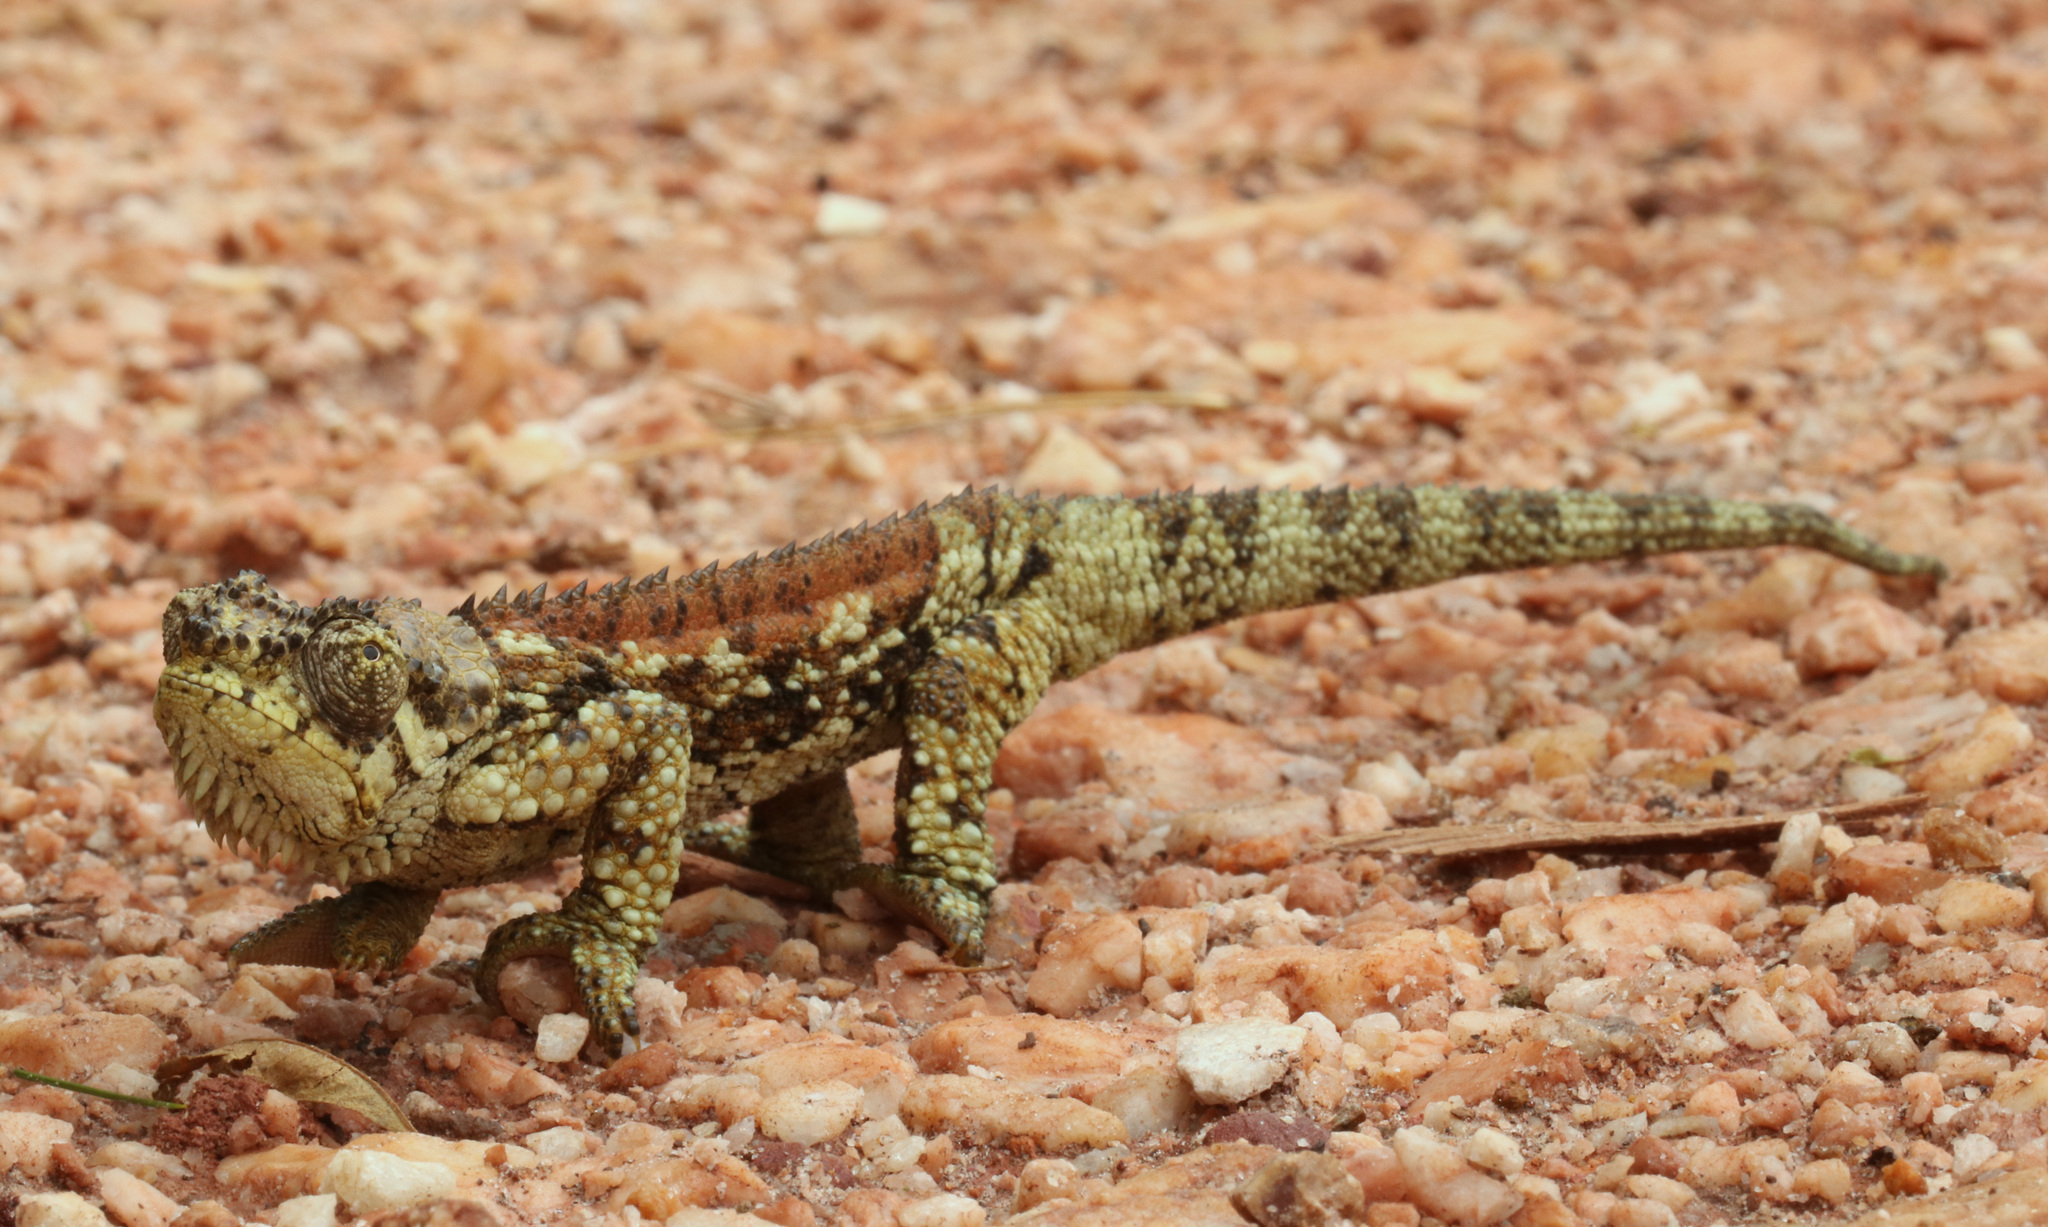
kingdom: Animalia
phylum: Chordata
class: Squamata
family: Chamaeleonidae
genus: Trioceros
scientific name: Trioceros tempeli
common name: Tanzania mountain chameleon
